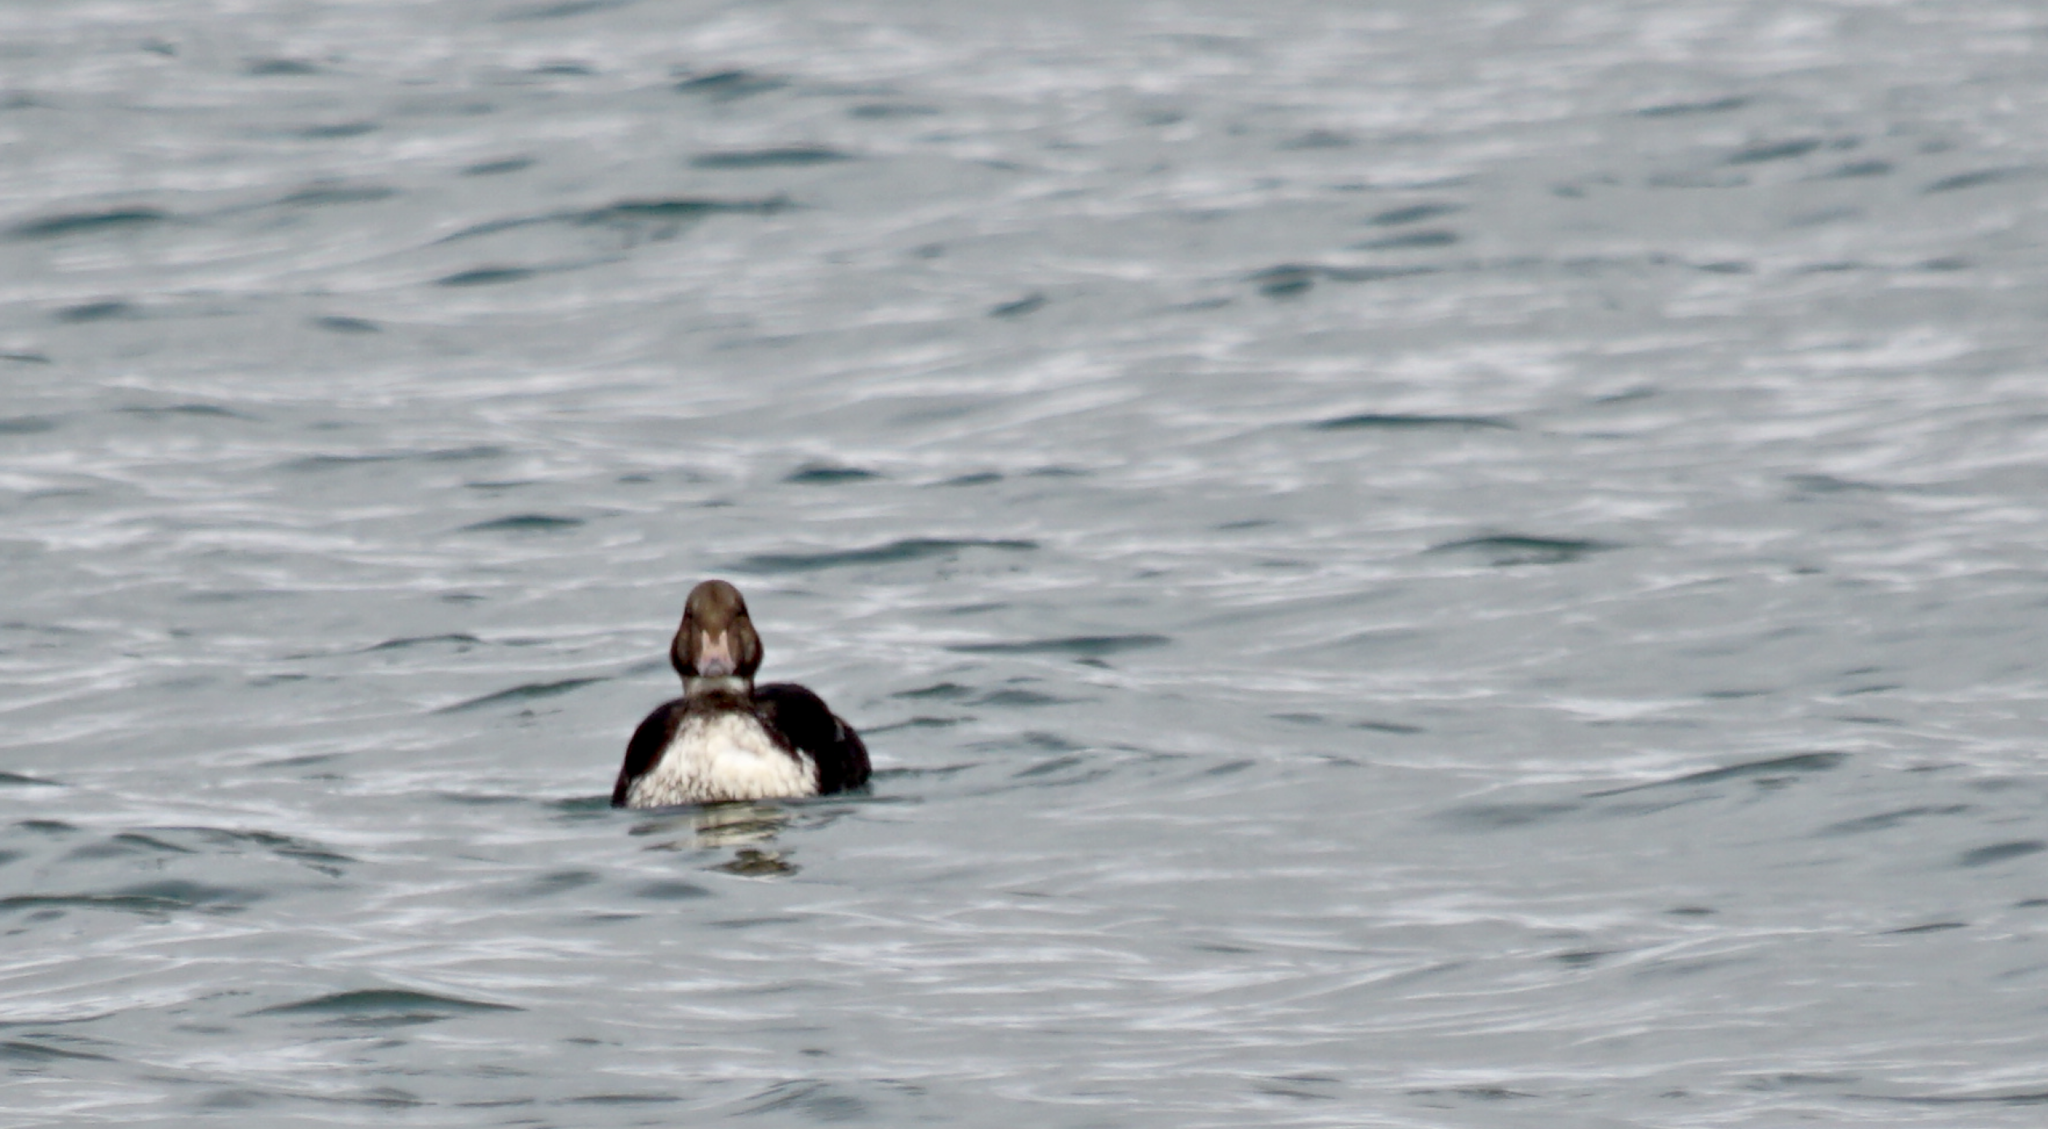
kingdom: Animalia
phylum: Chordata
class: Aves
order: Anseriformes
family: Anatidae
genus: Somateria
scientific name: Somateria spectabilis
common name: King eider
